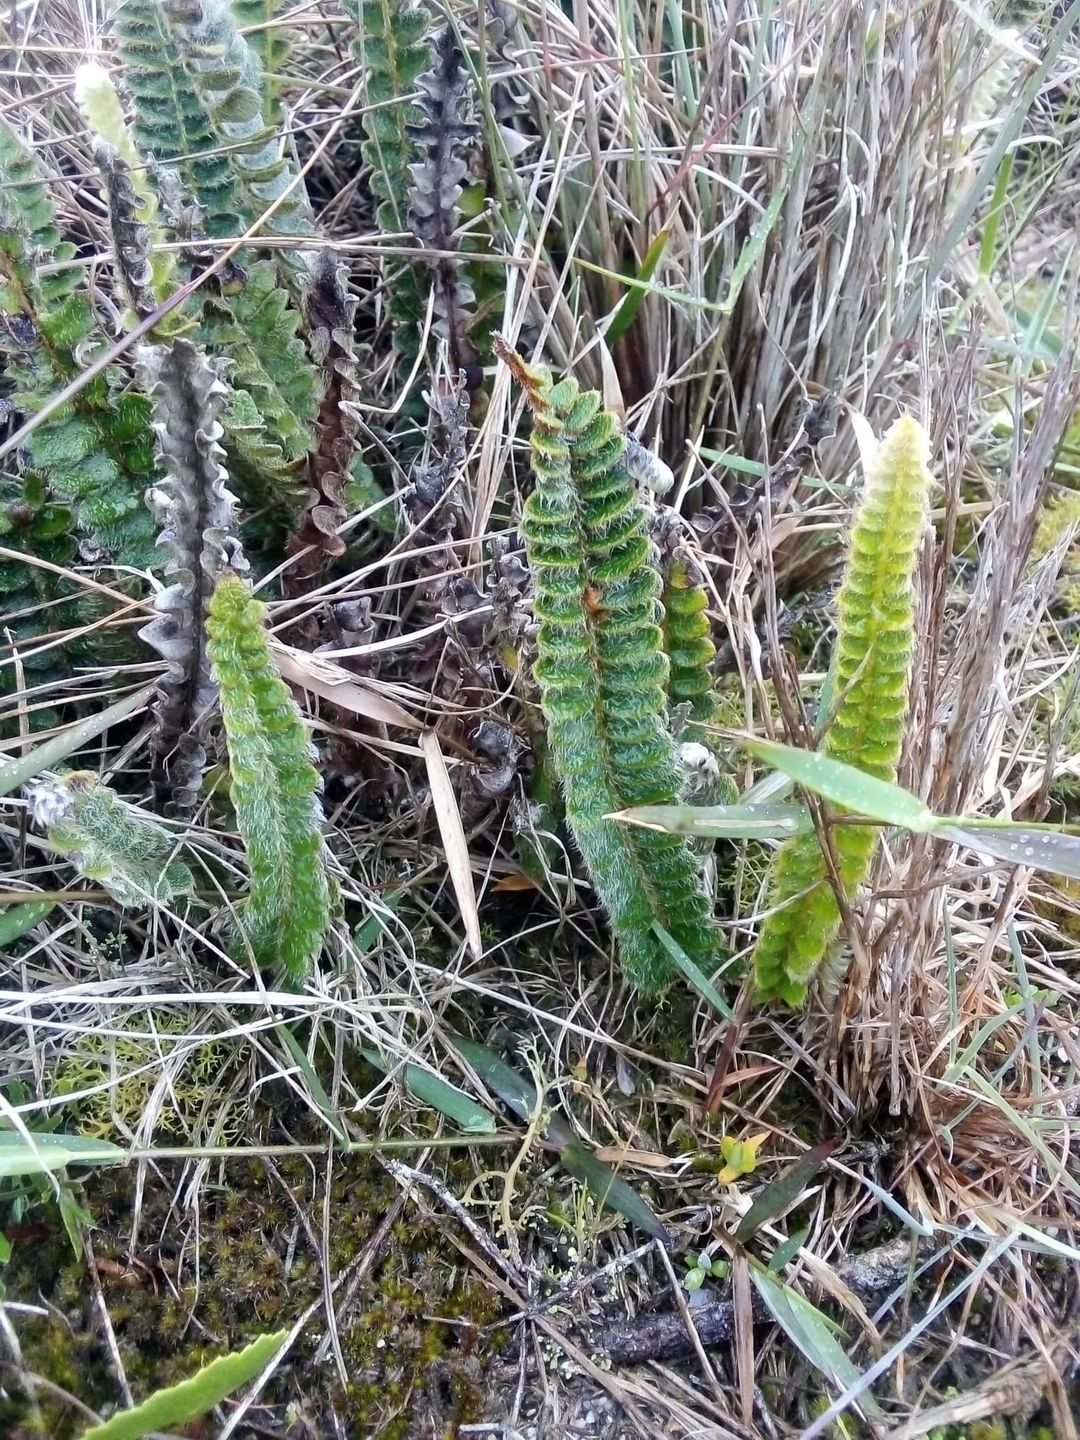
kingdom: Plantae
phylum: Tracheophyta
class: Polypodiopsida
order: Polypodiales
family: Polypodiaceae
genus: Pleopeltis
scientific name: Pleopeltis lepidopteris
